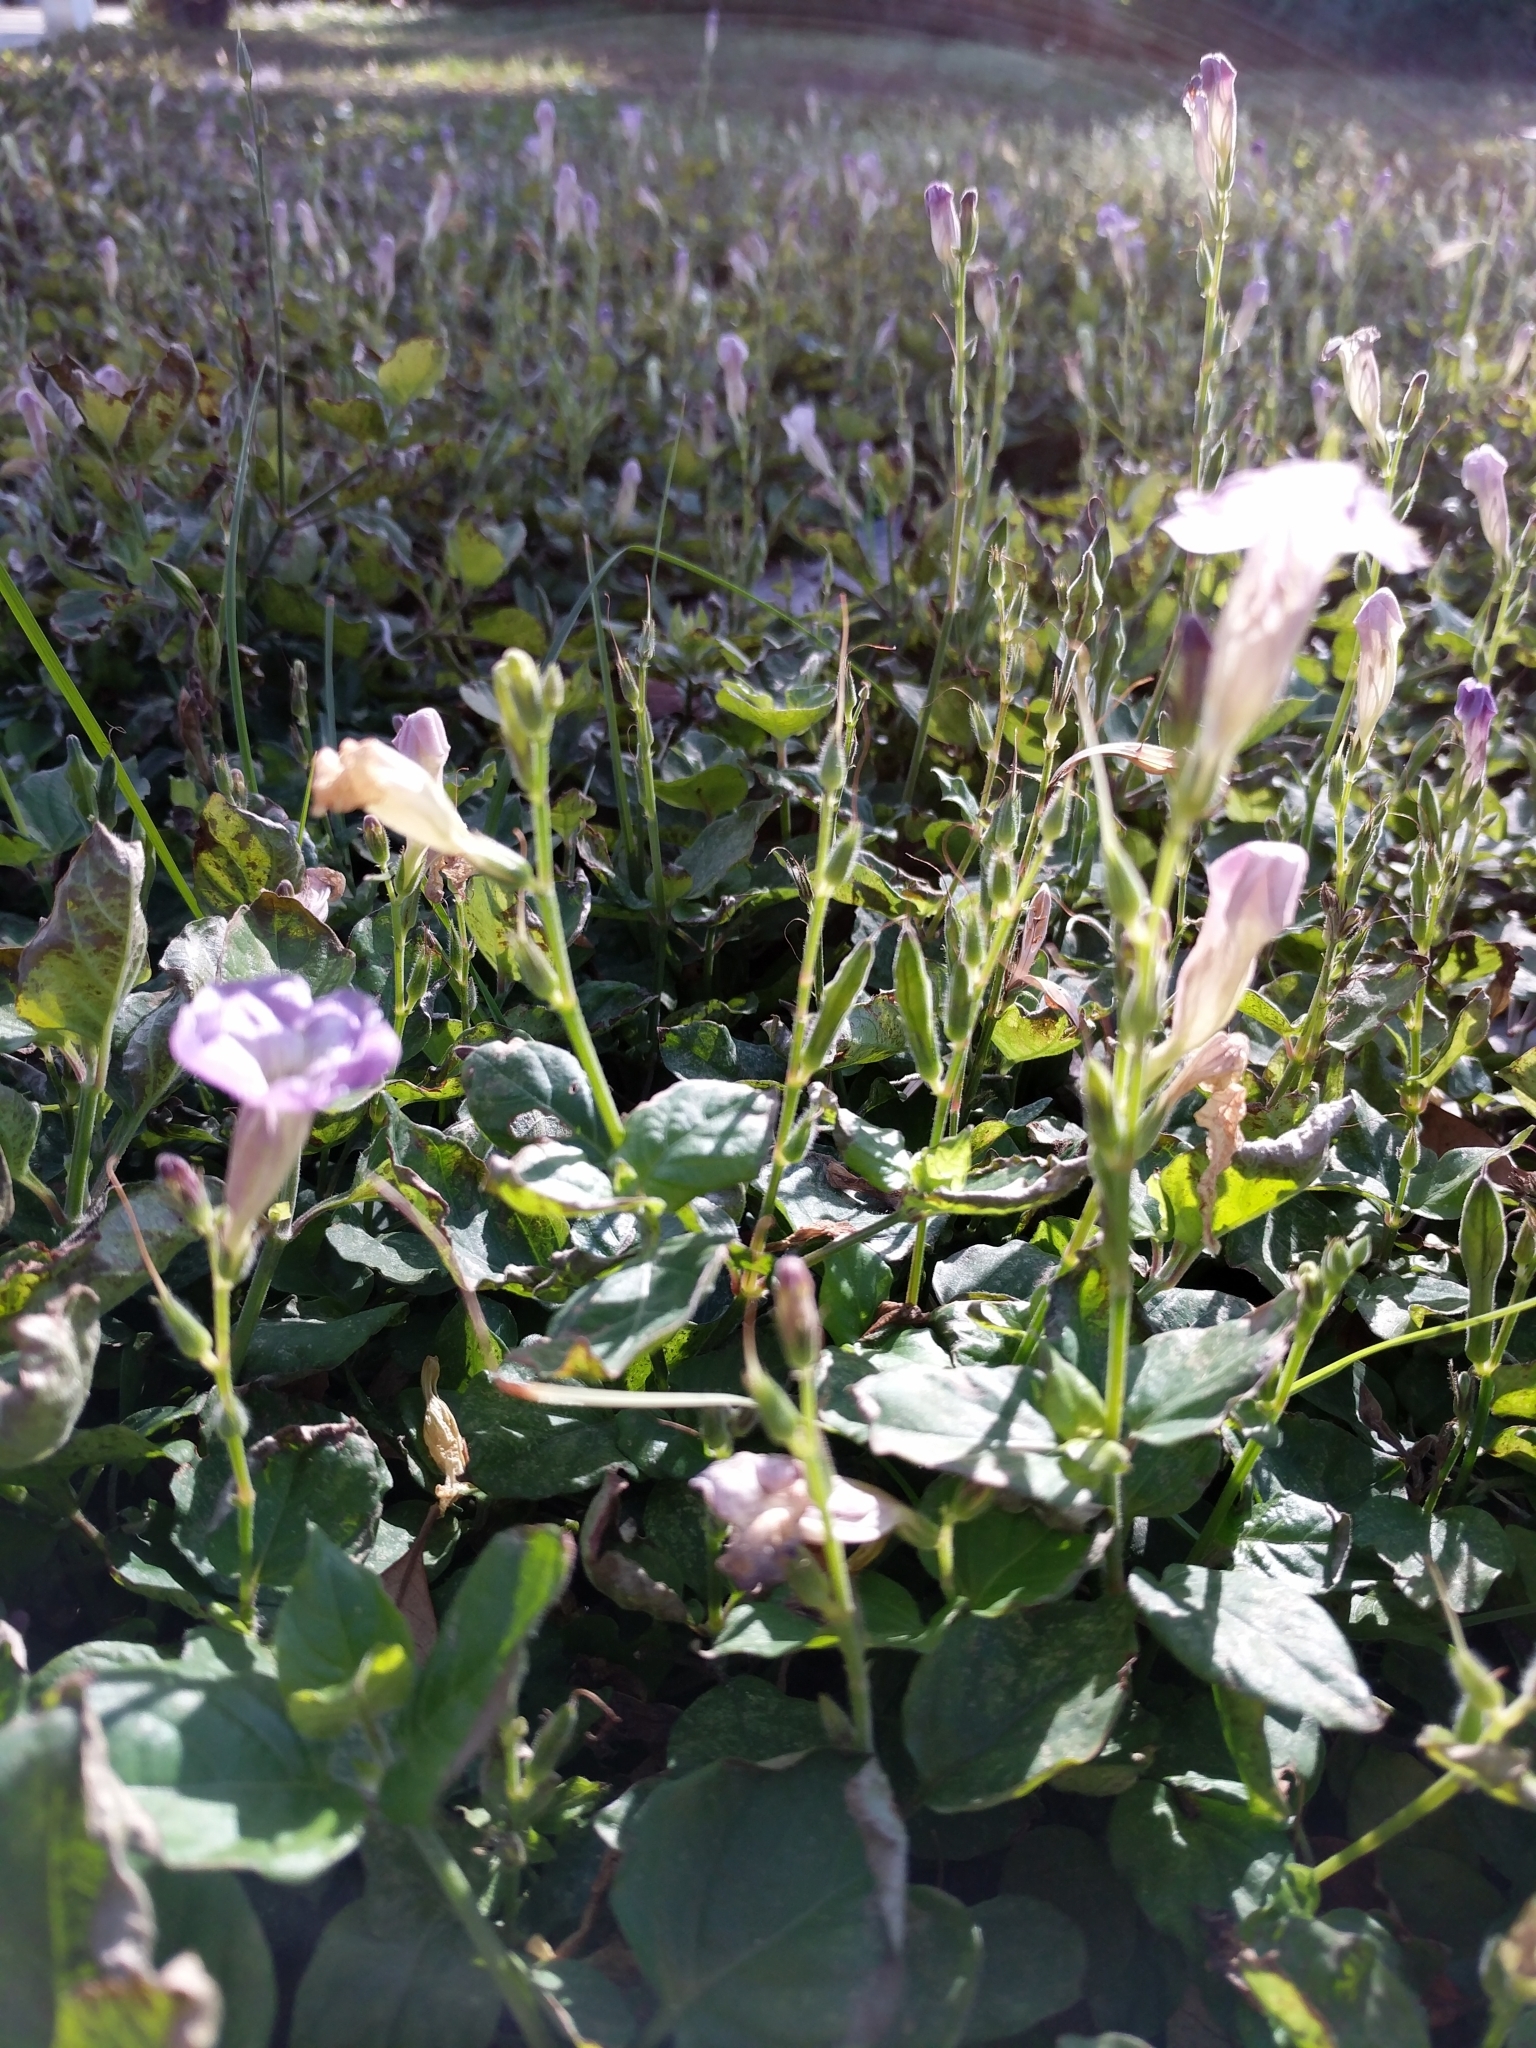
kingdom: Plantae
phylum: Tracheophyta
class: Magnoliopsida
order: Lamiales
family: Acanthaceae
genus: Asystasia
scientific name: Asystasia gangetica
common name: Chinese violet
